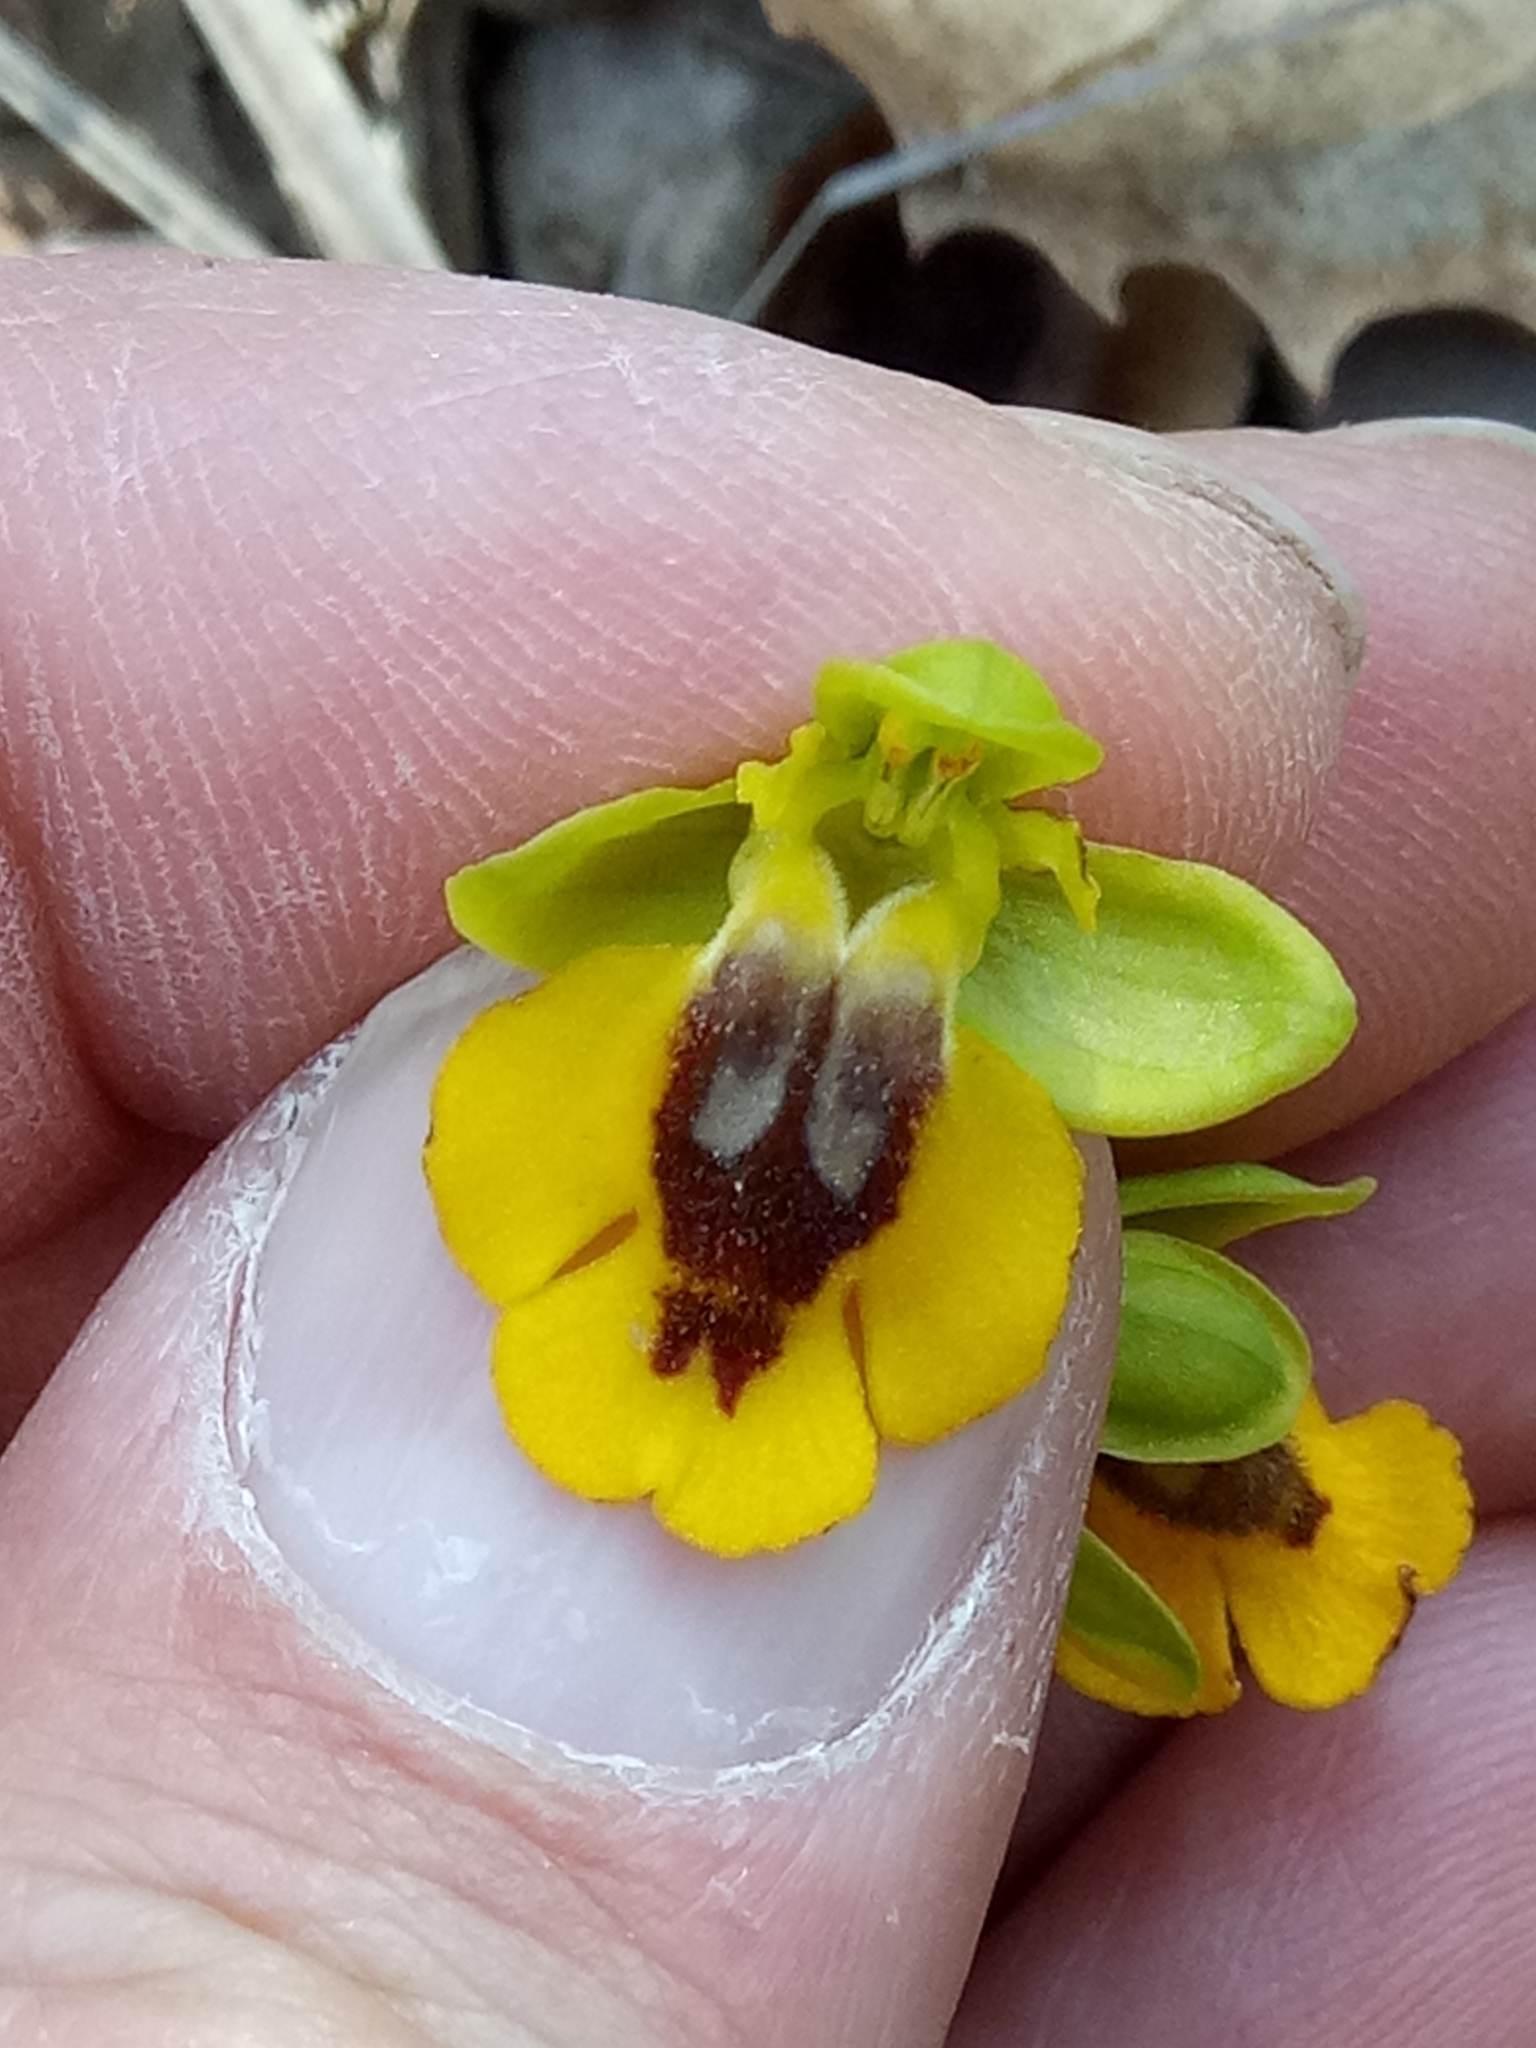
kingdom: Plantae
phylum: Tracheophyta
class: Liliopsida
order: Asparagales
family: Orchidaceae
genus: Ophrys
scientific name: Ophrys lutea
